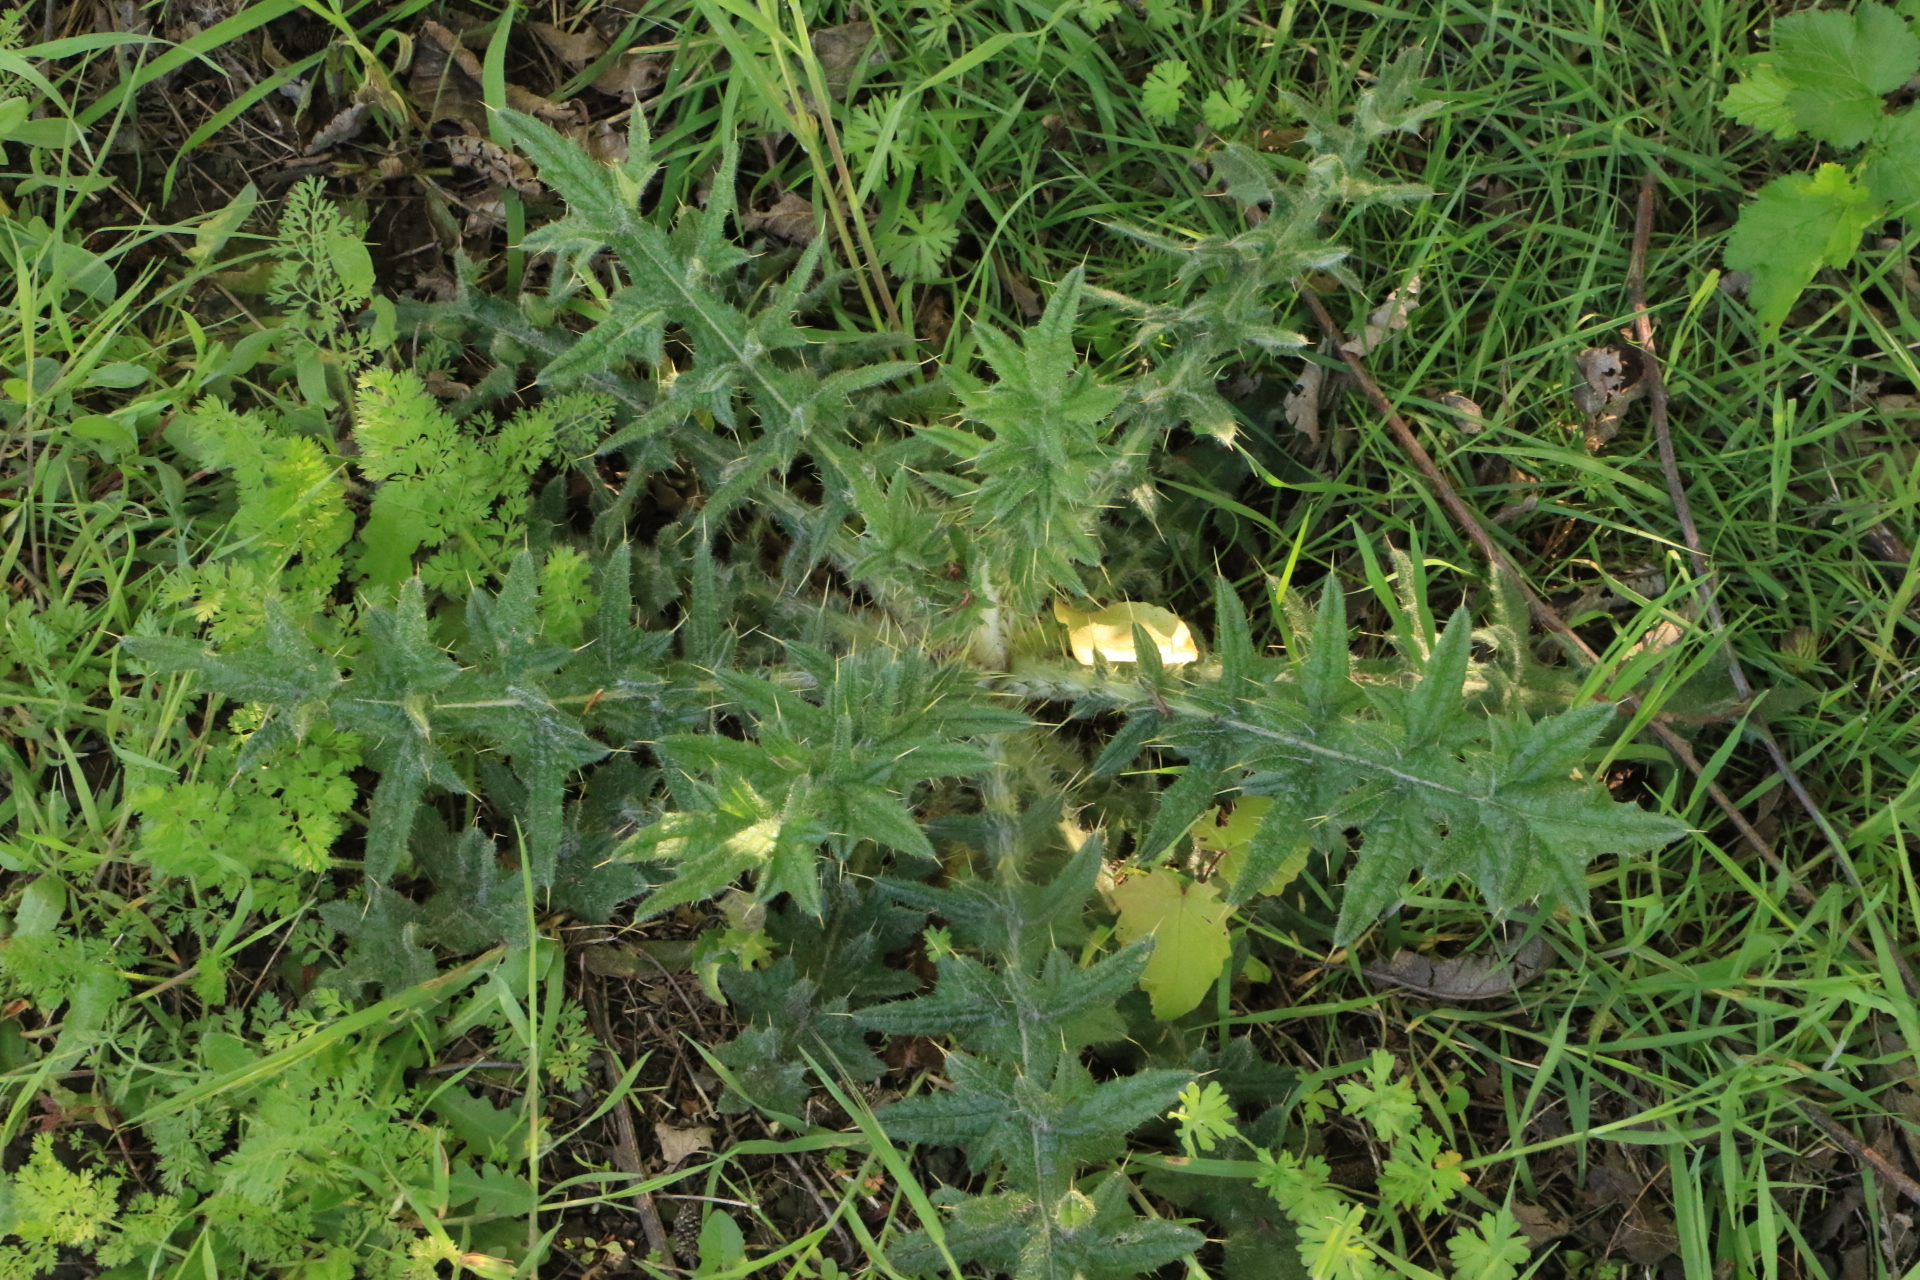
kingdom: Plantae
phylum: Tracheophyta
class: Magnoliopsida
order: Asterales
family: Asteraceae
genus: Cirsium
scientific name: Cirsium vulgare
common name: Bull thistle
